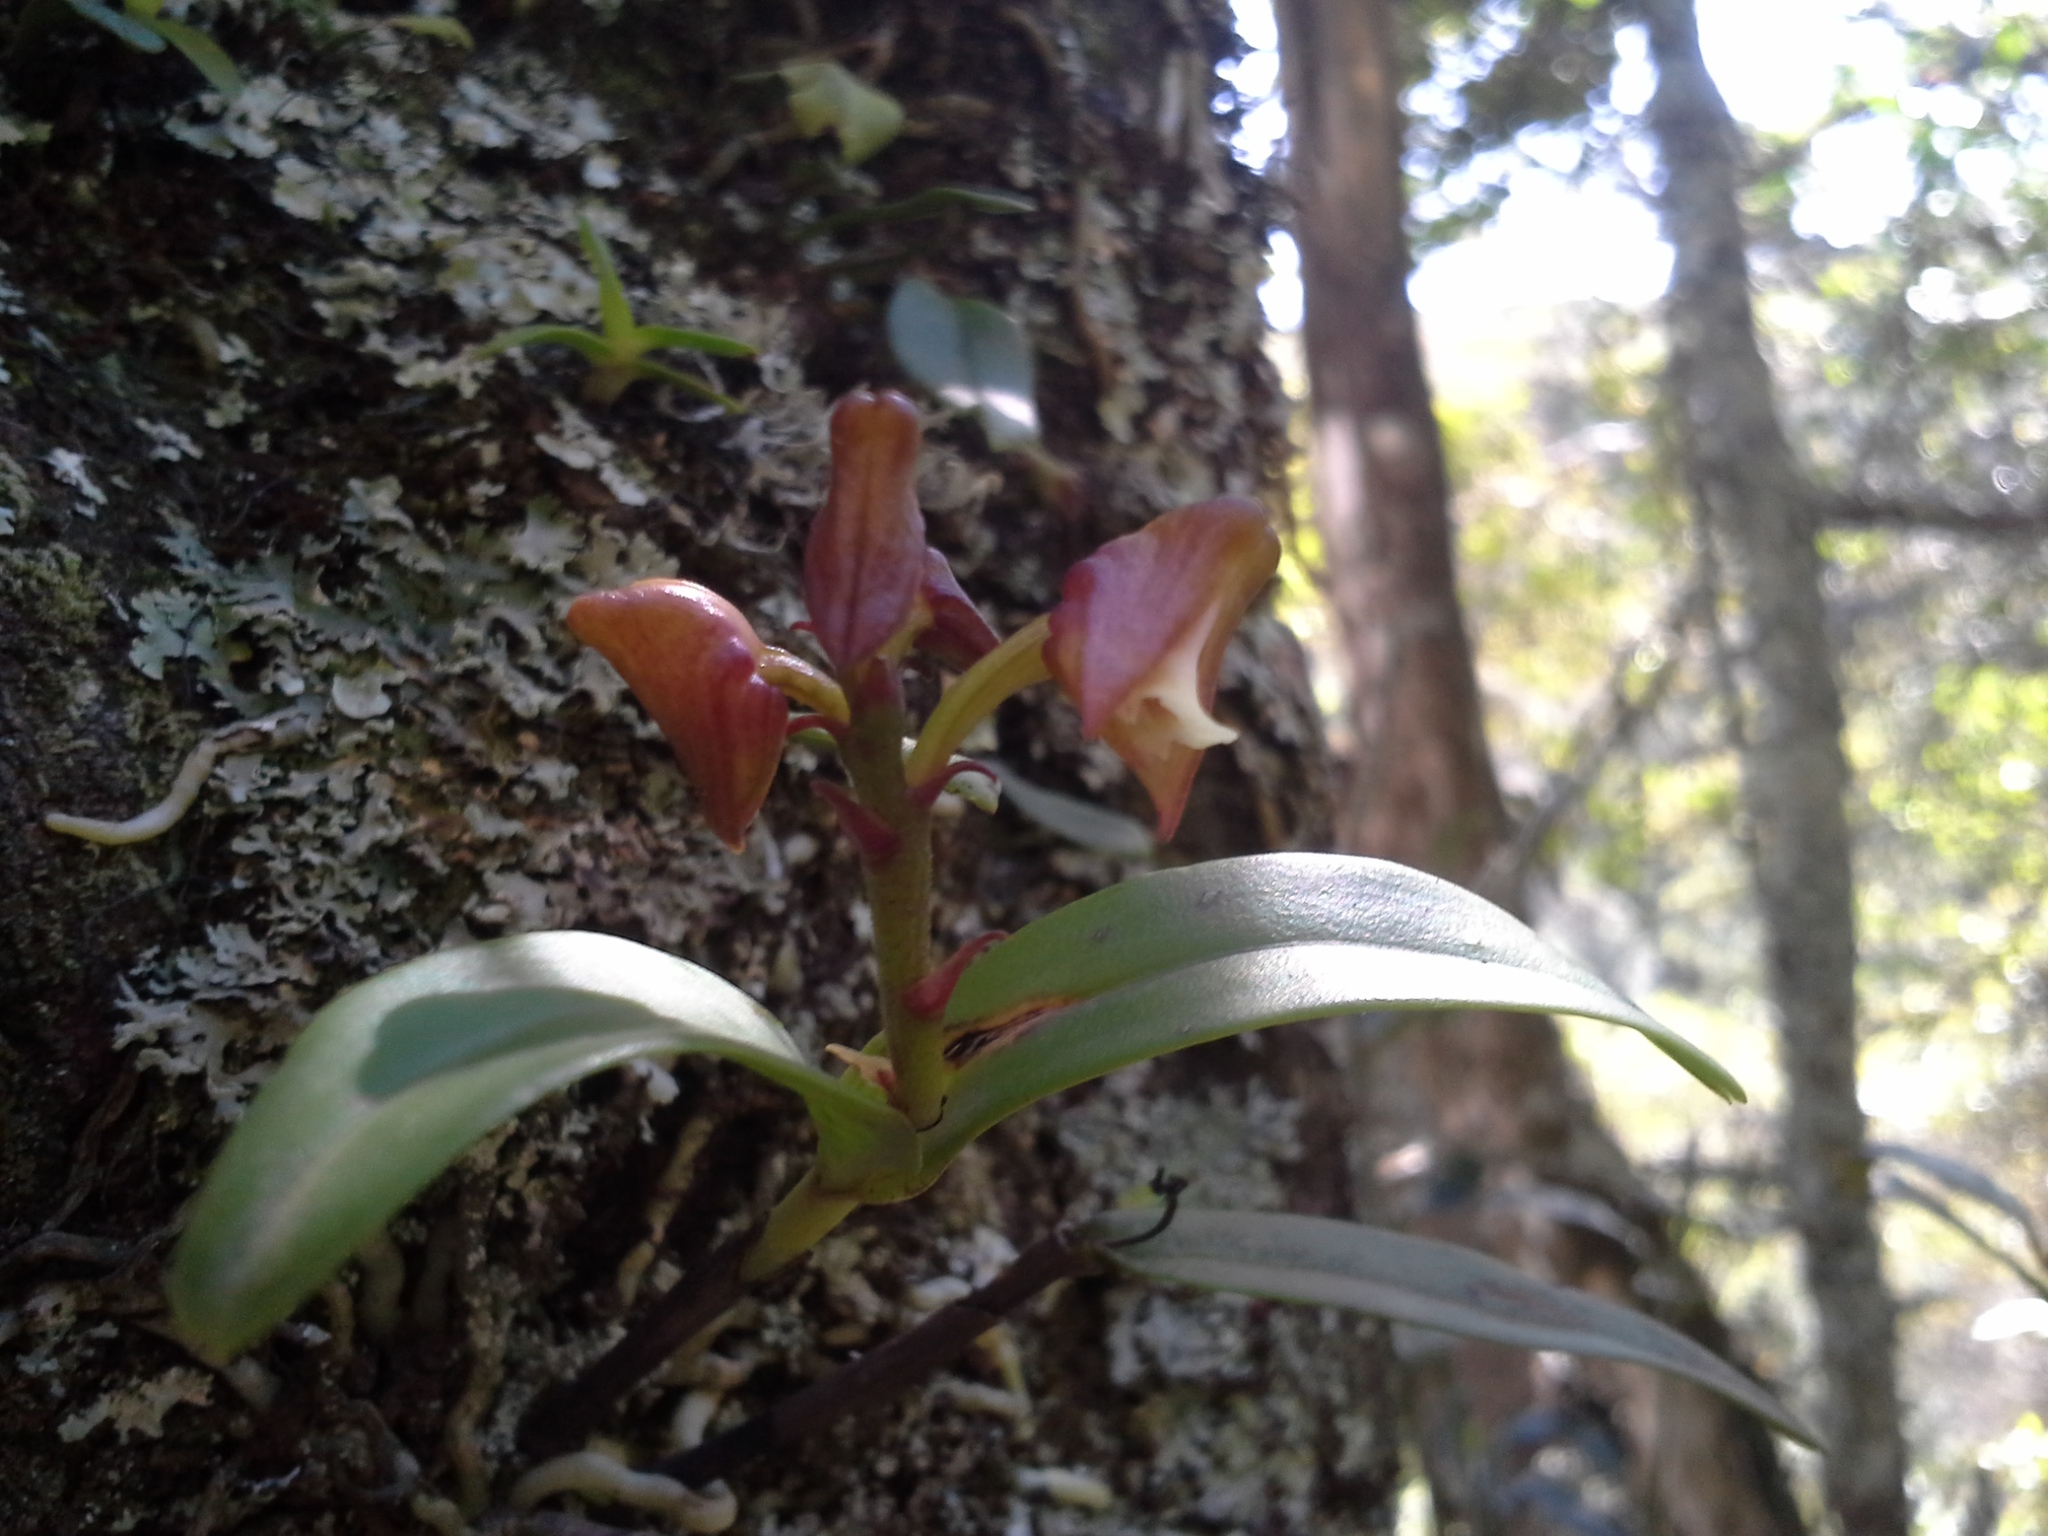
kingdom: Plantae
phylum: Tracheophyta
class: Liliopsida
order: Asparagales
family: Orchidaceae
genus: Polystachya
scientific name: Polystachya transvaalensis
